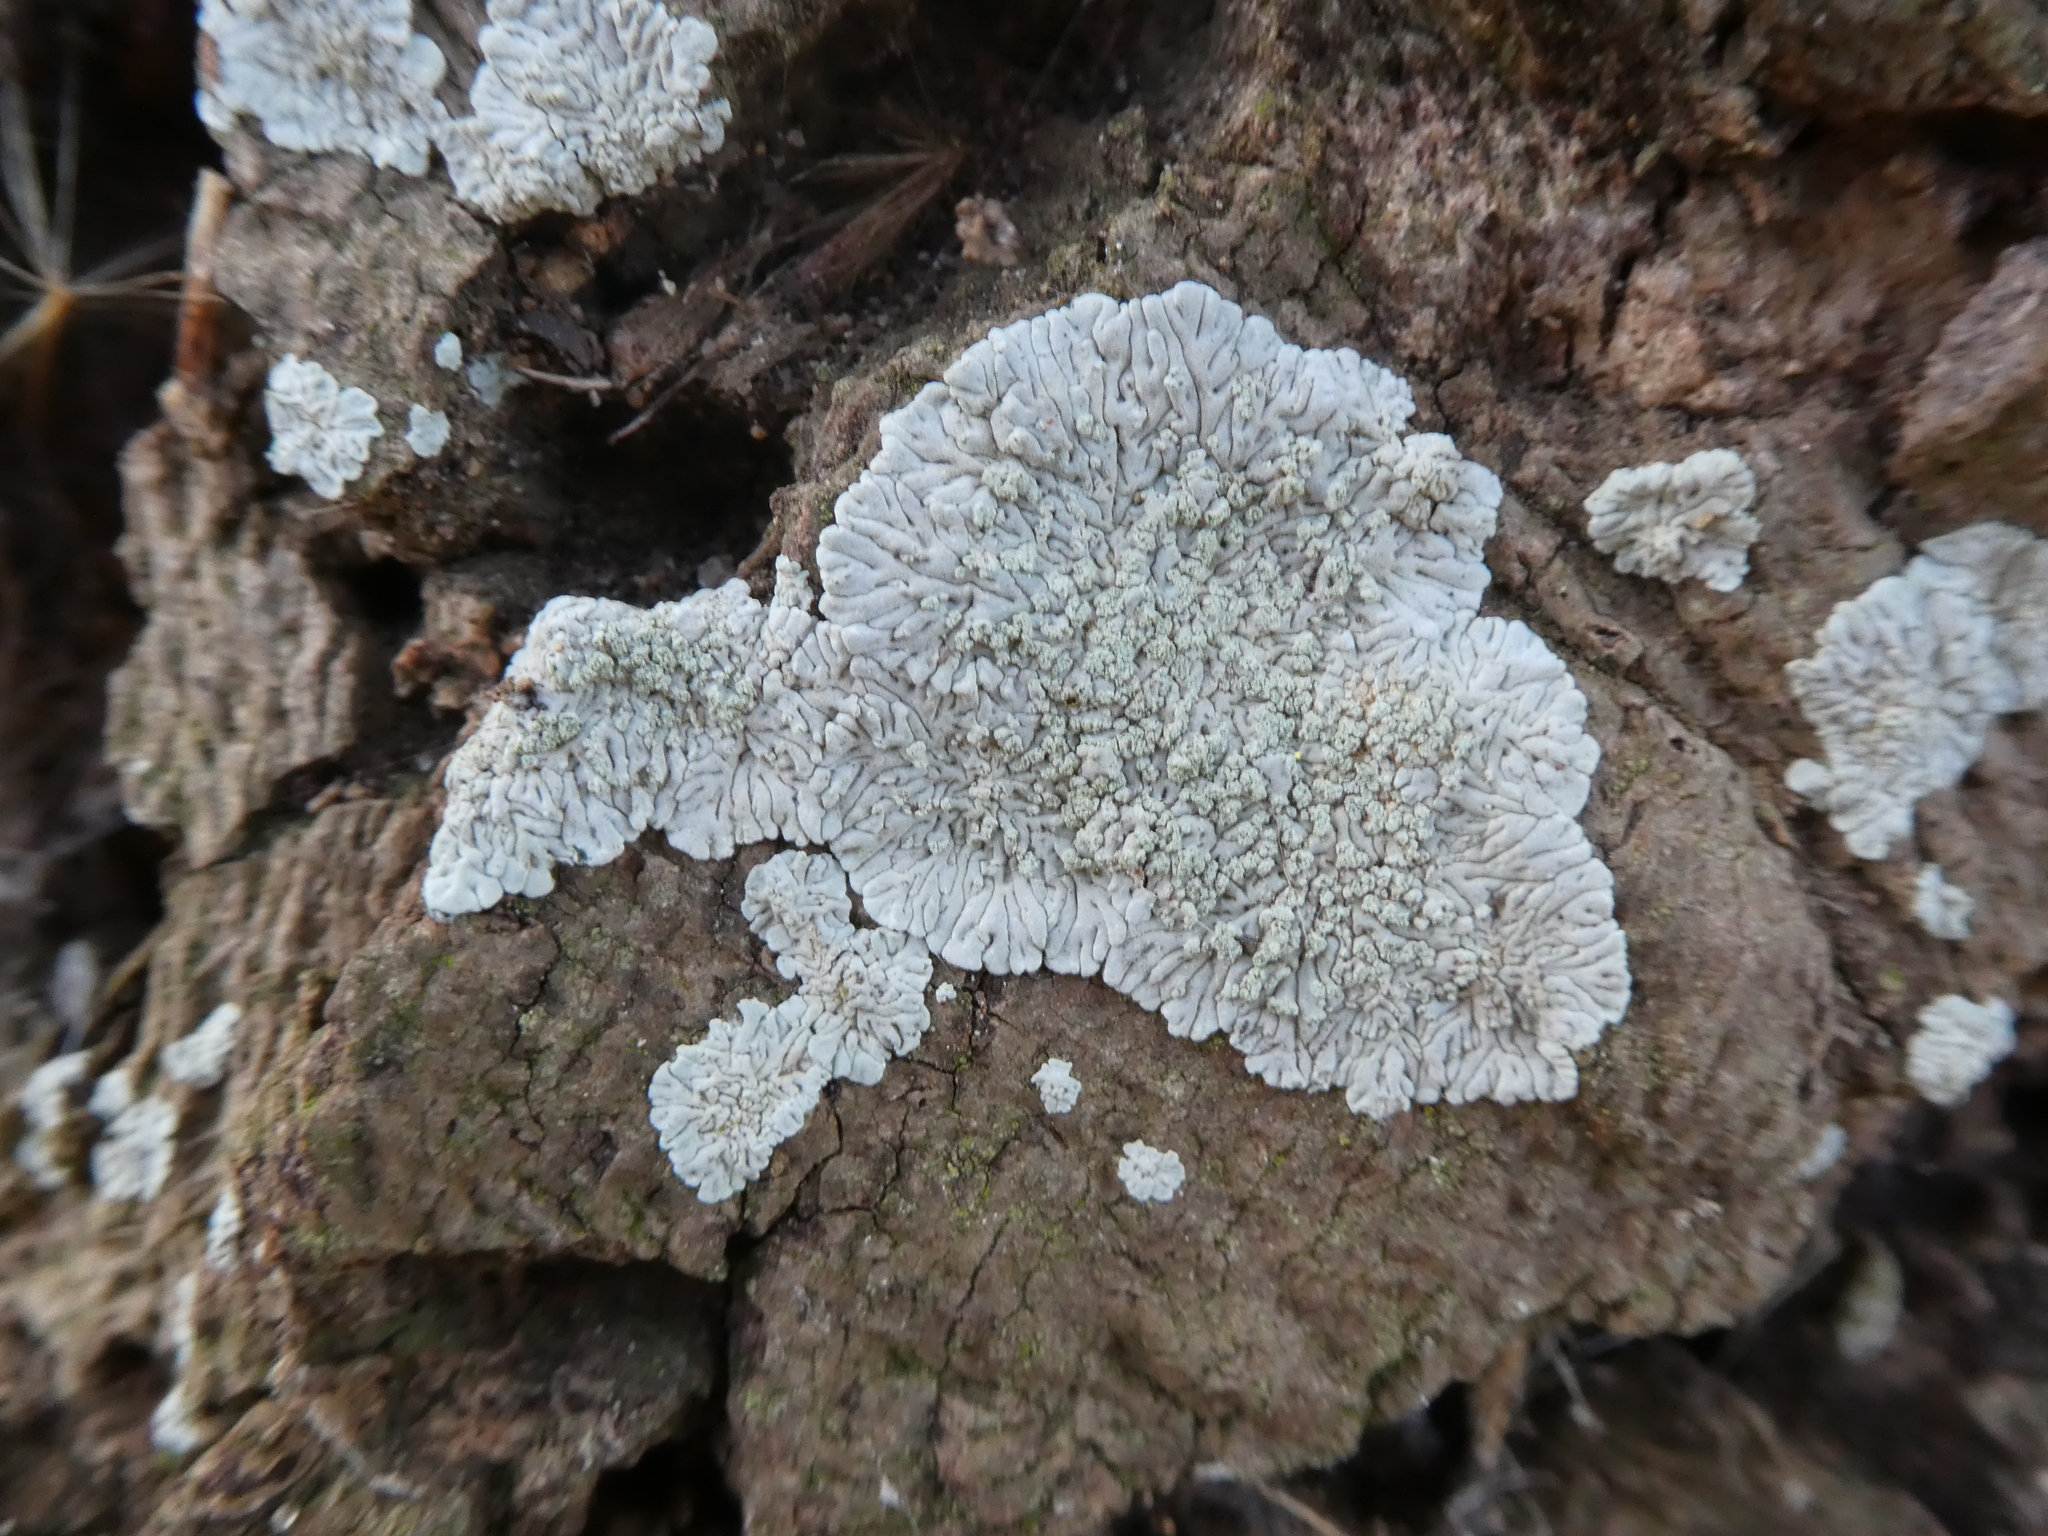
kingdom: Fungi
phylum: Ascomycota
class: Lecanoromycetes
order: Caliciales
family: Caliciaceae
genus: Diploicia
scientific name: Diploicia canescens
